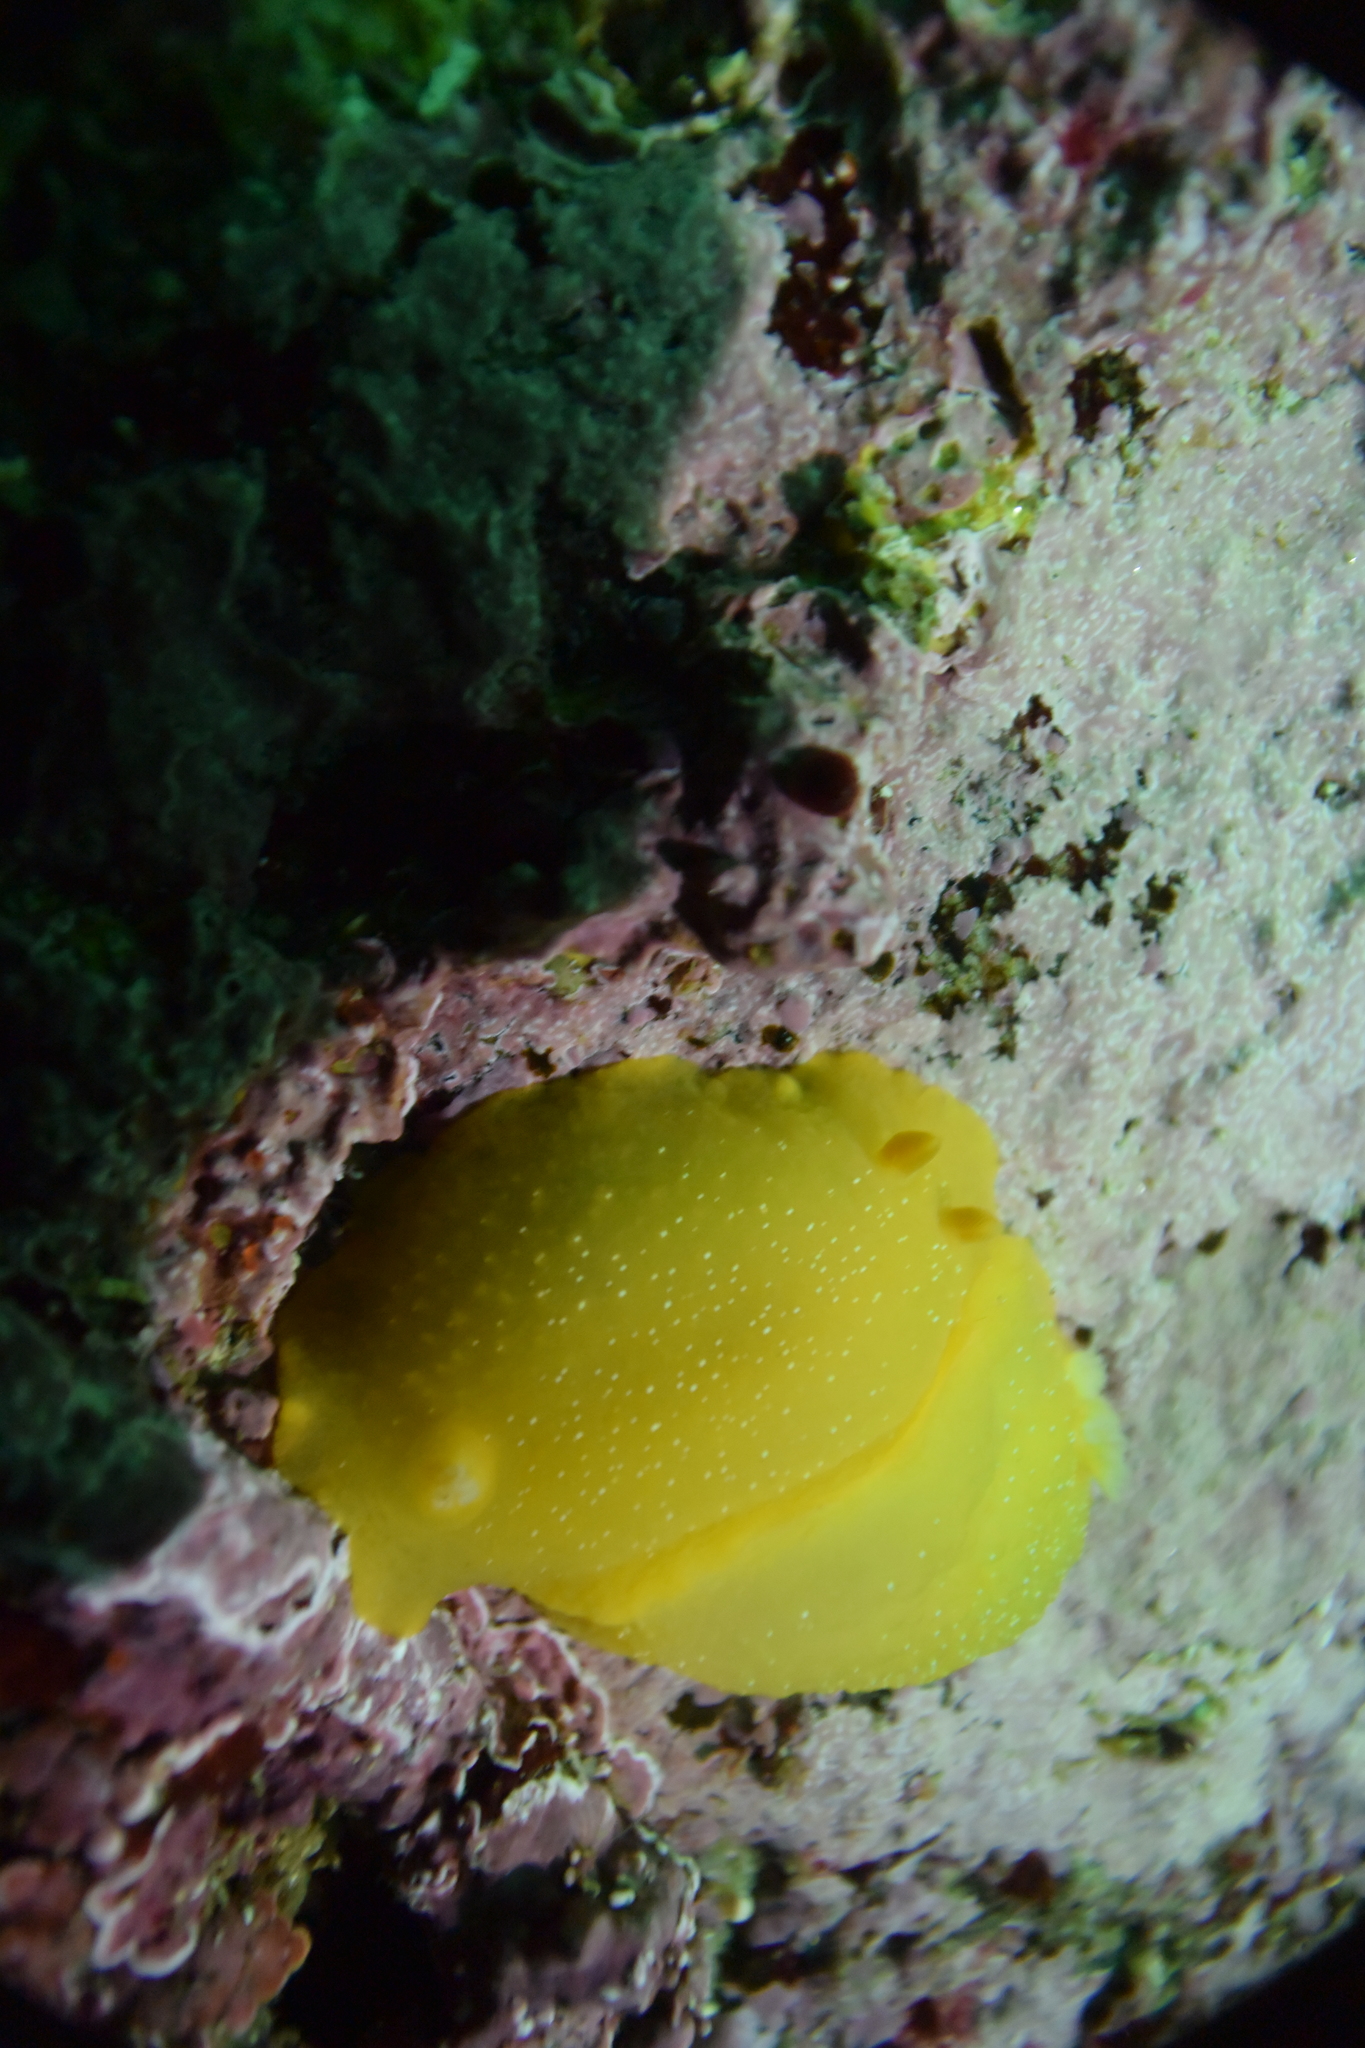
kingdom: Animalia
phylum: Mollusca
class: Gastropoda
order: Nudibranchia
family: Dendrodorididae
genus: Doriopsilla
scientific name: Doriopsilla albopunctata
